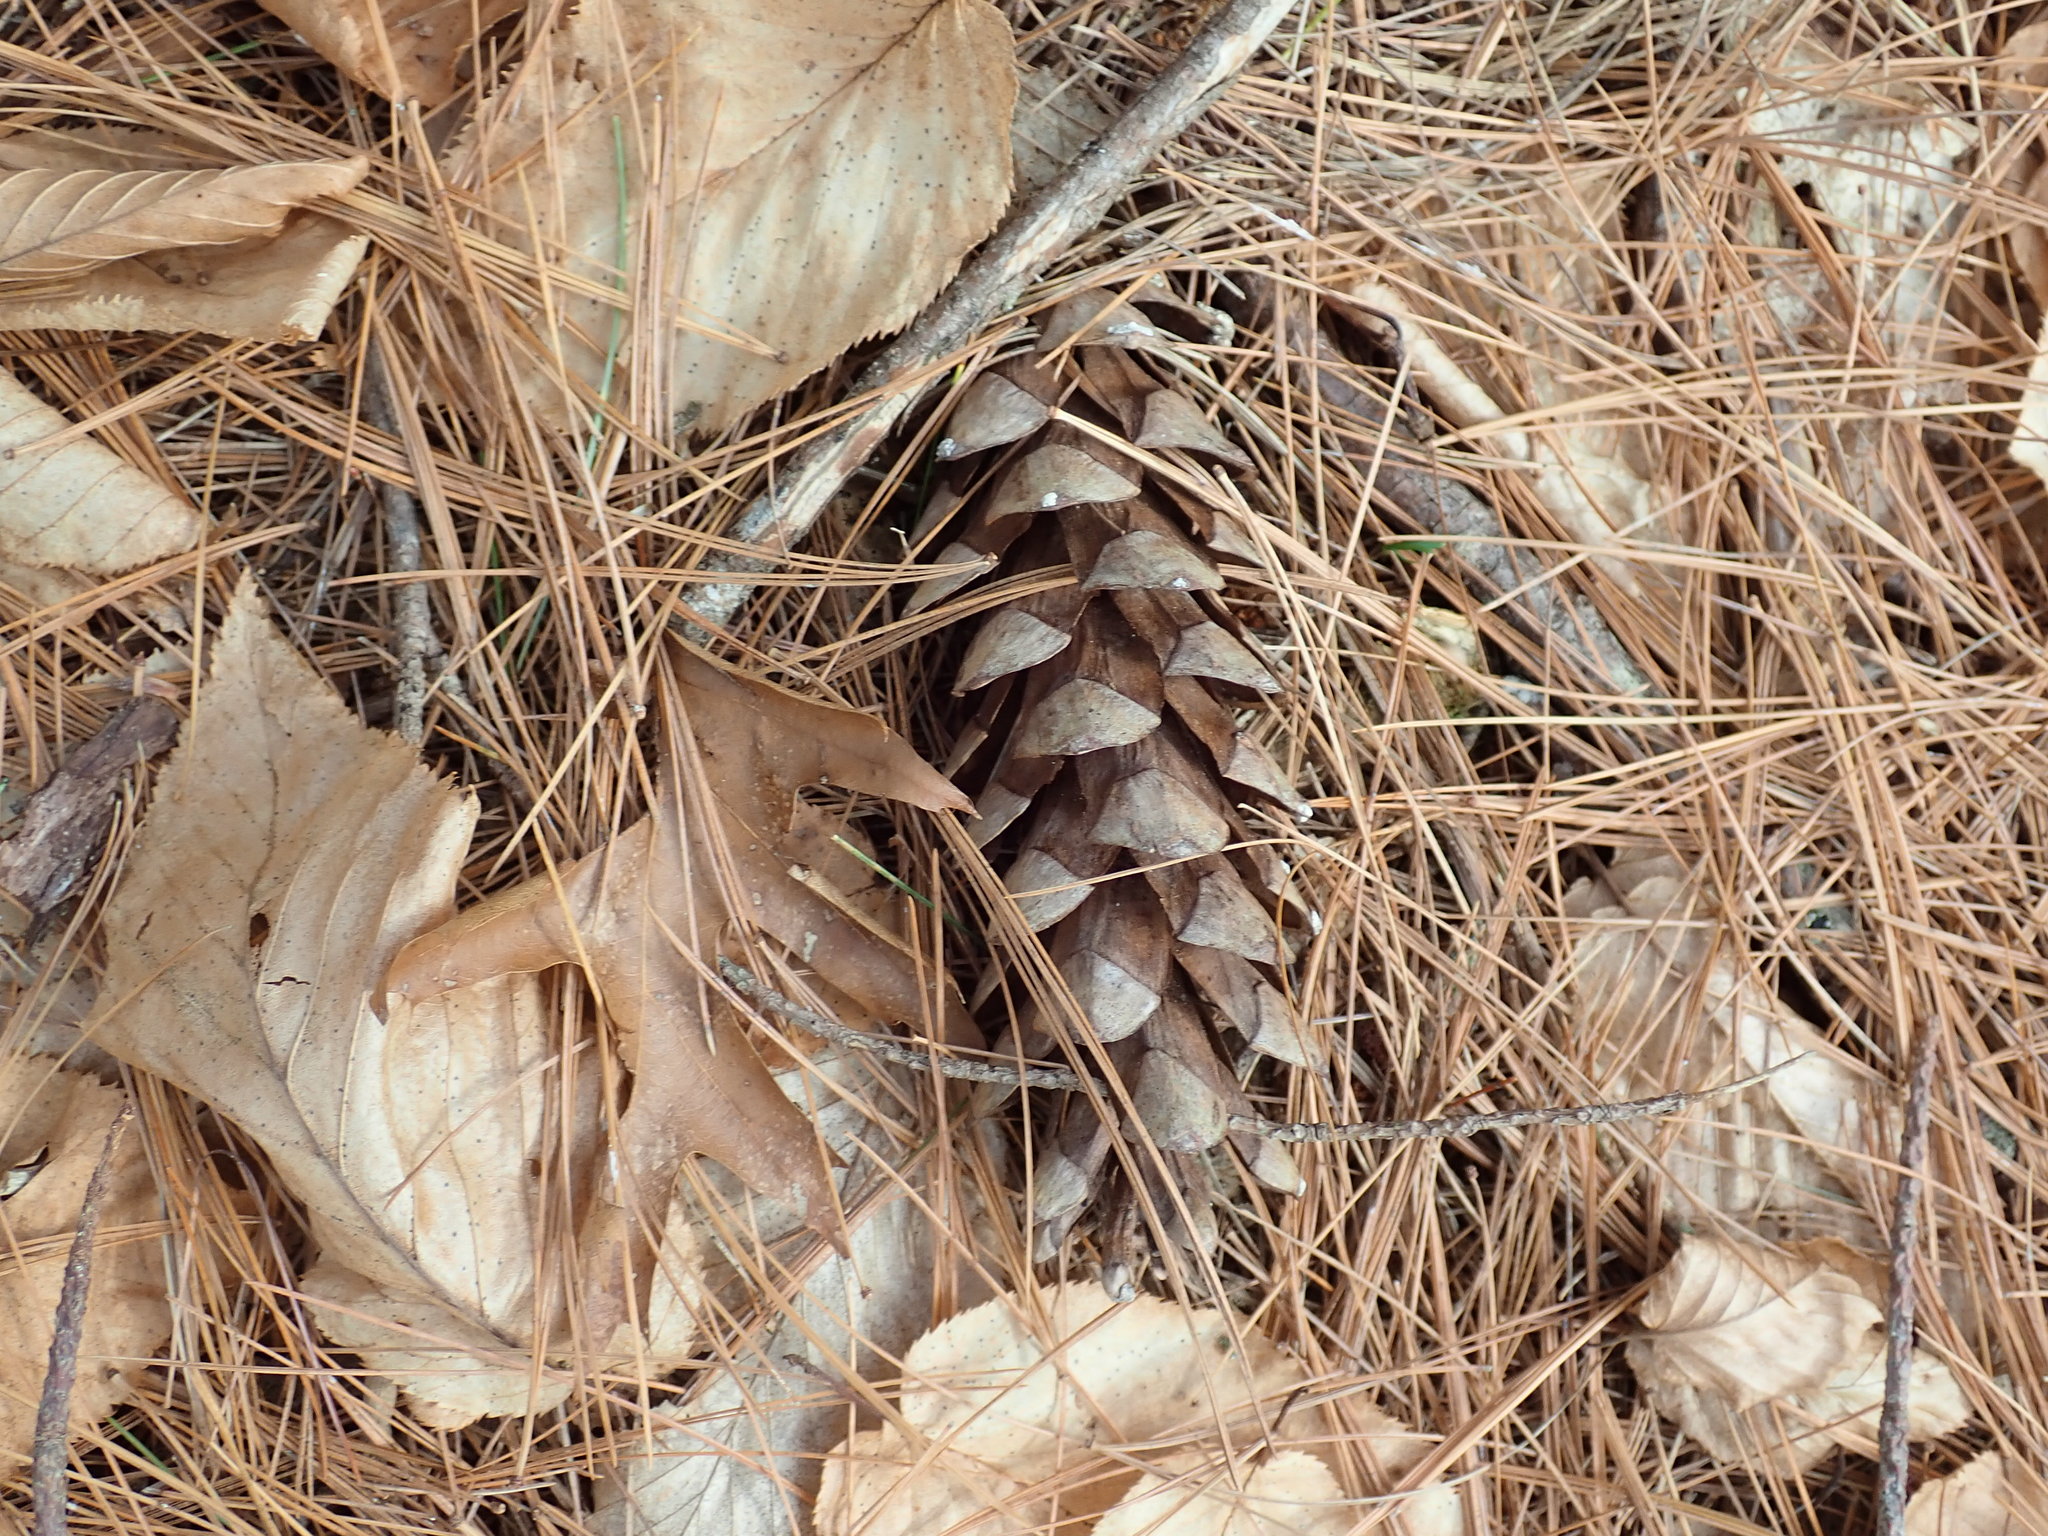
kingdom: Plantae
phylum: Tracheophyta
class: Pinopsida
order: Pinales
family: Pinaceae
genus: Pinus
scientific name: Pinus strobus
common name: Weymouth pine
